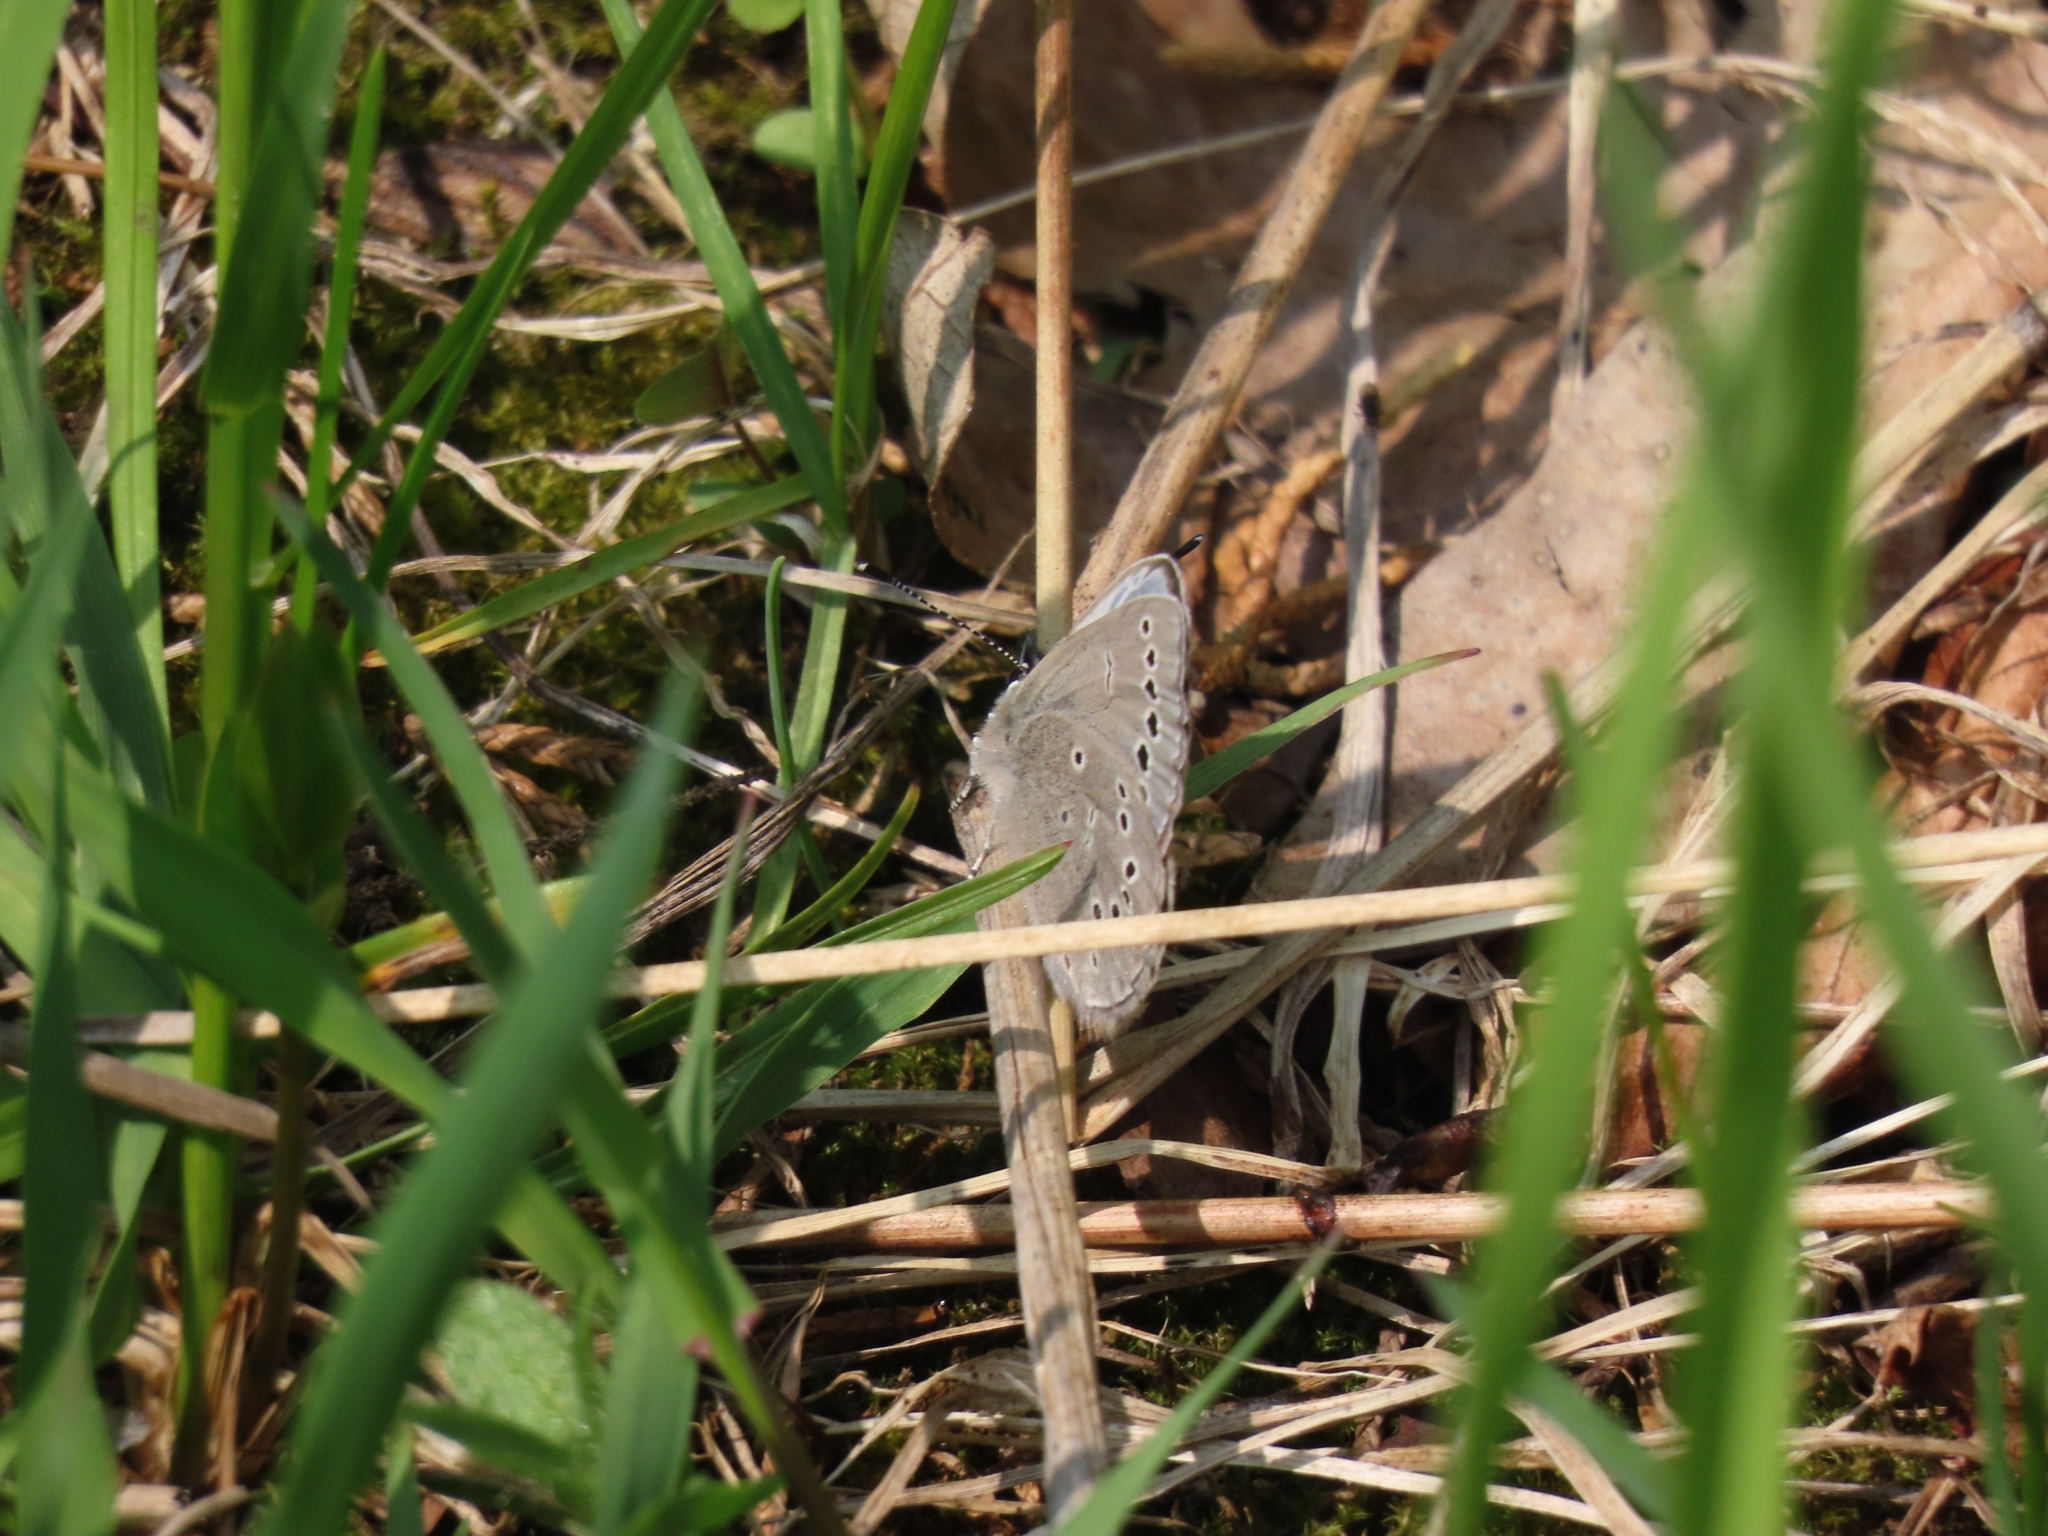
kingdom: Animalia
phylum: Arthropoda
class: Insecta
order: Lepidoptera
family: Lycaenidae
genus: Glaucopsyche
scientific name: Glaucopsyche lygdamus
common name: Silvery blue
